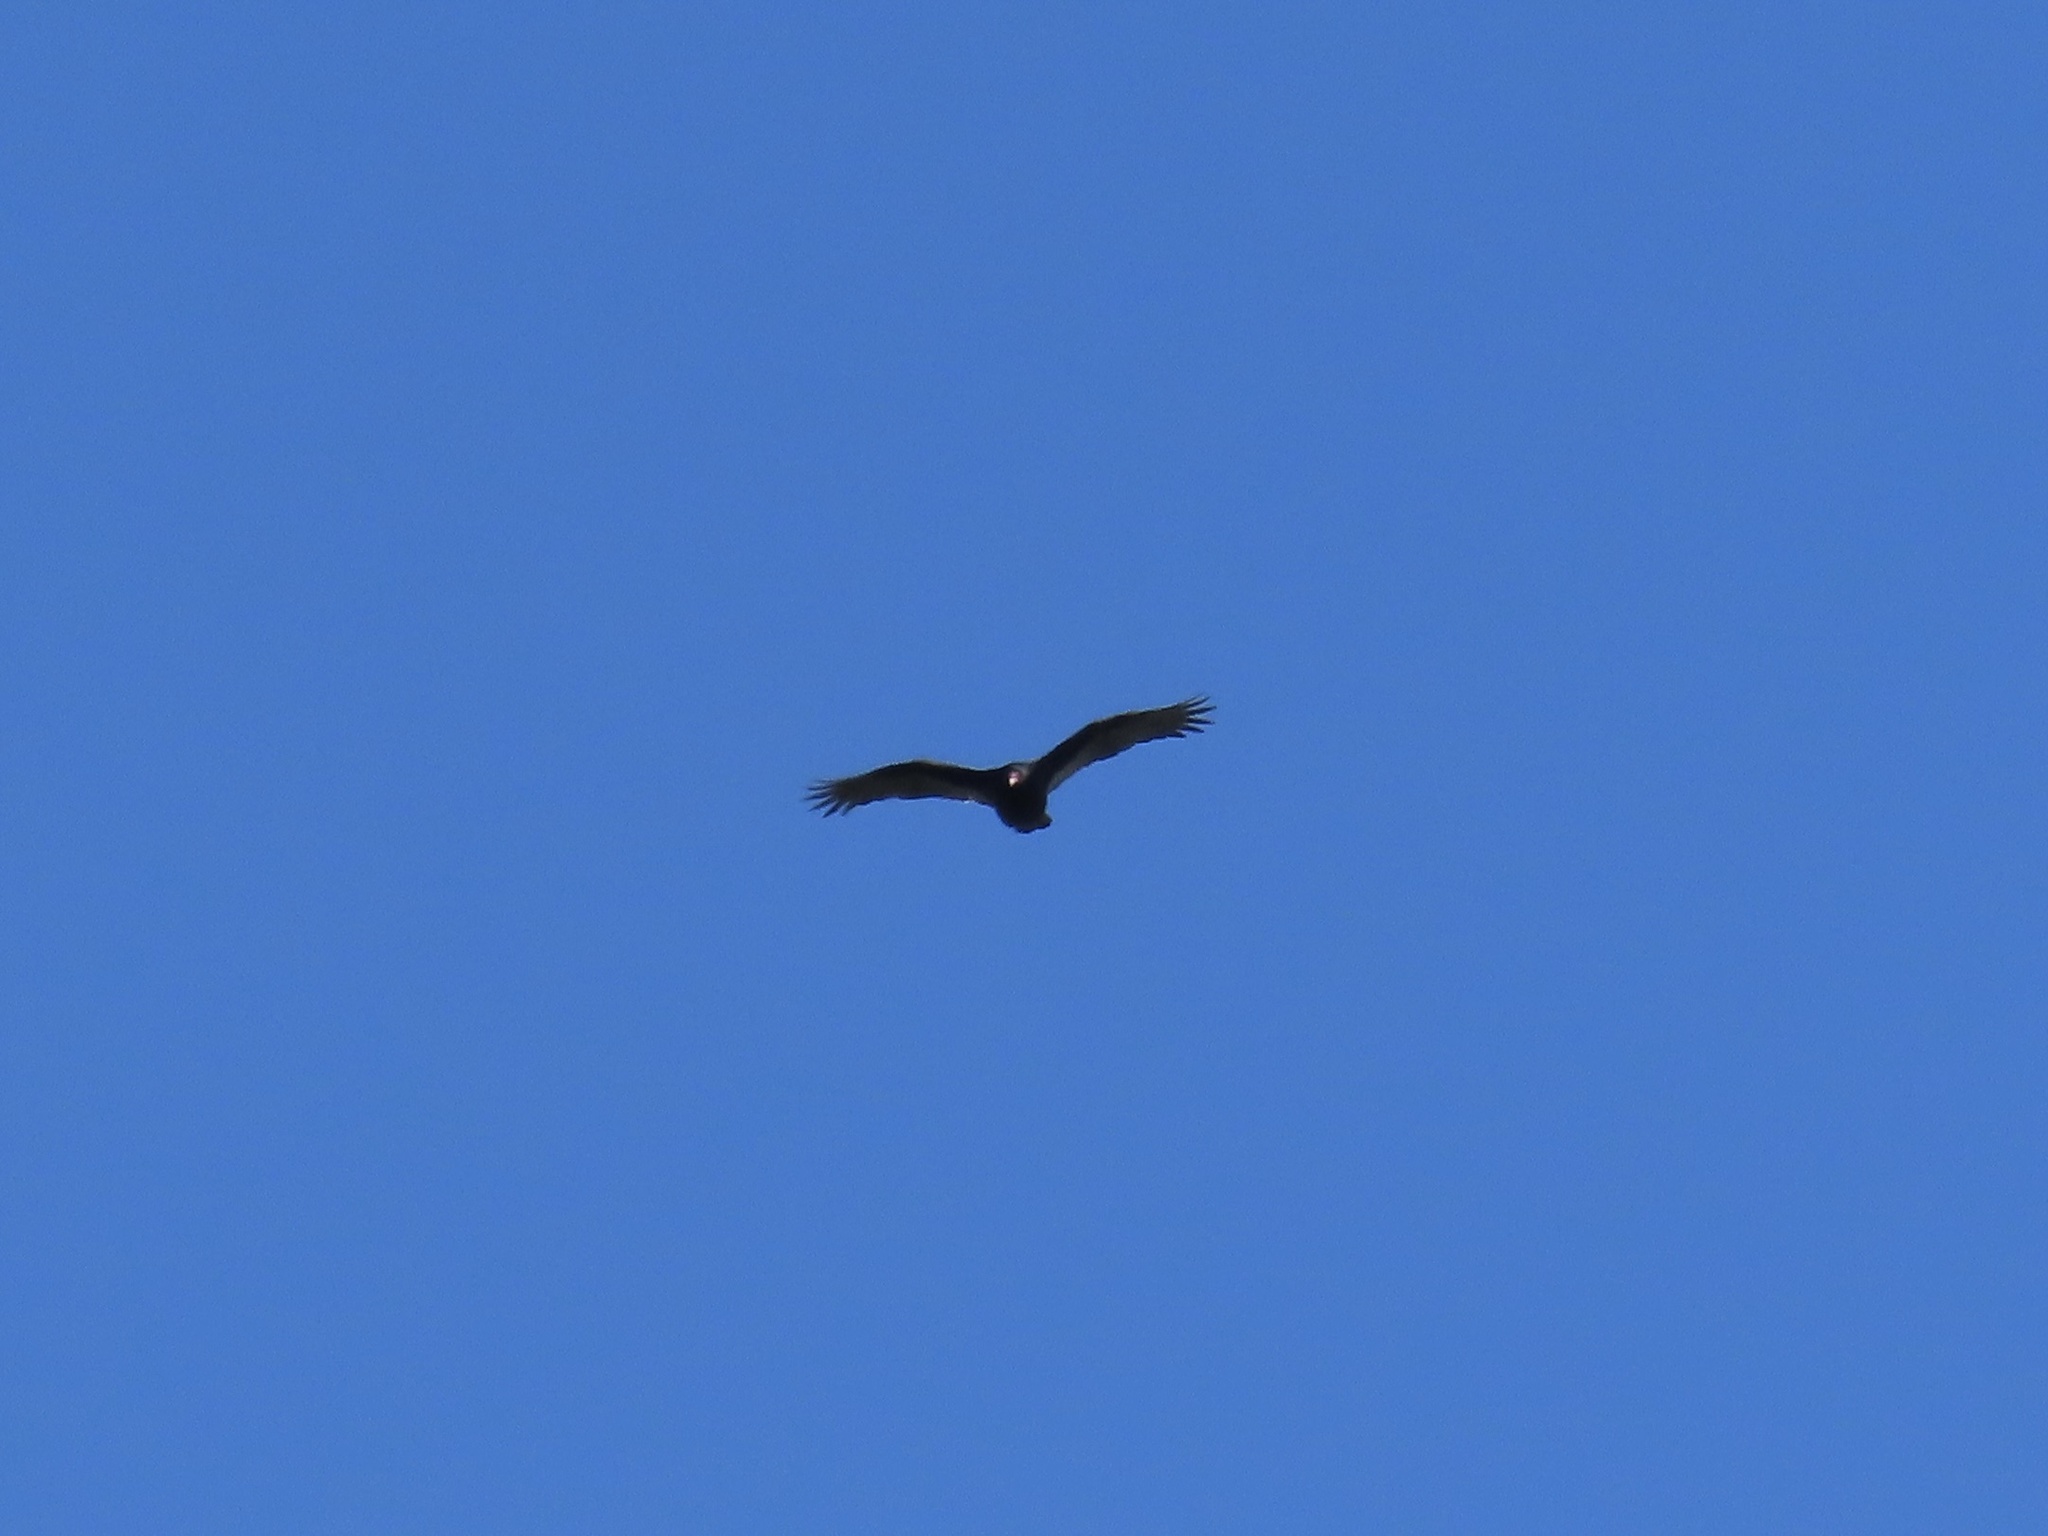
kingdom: Animalia
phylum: Chordata
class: Aves
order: Accipitriformes
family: Cathartidae
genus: Cathartes
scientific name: Cathartes aura
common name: Turkey vulture
